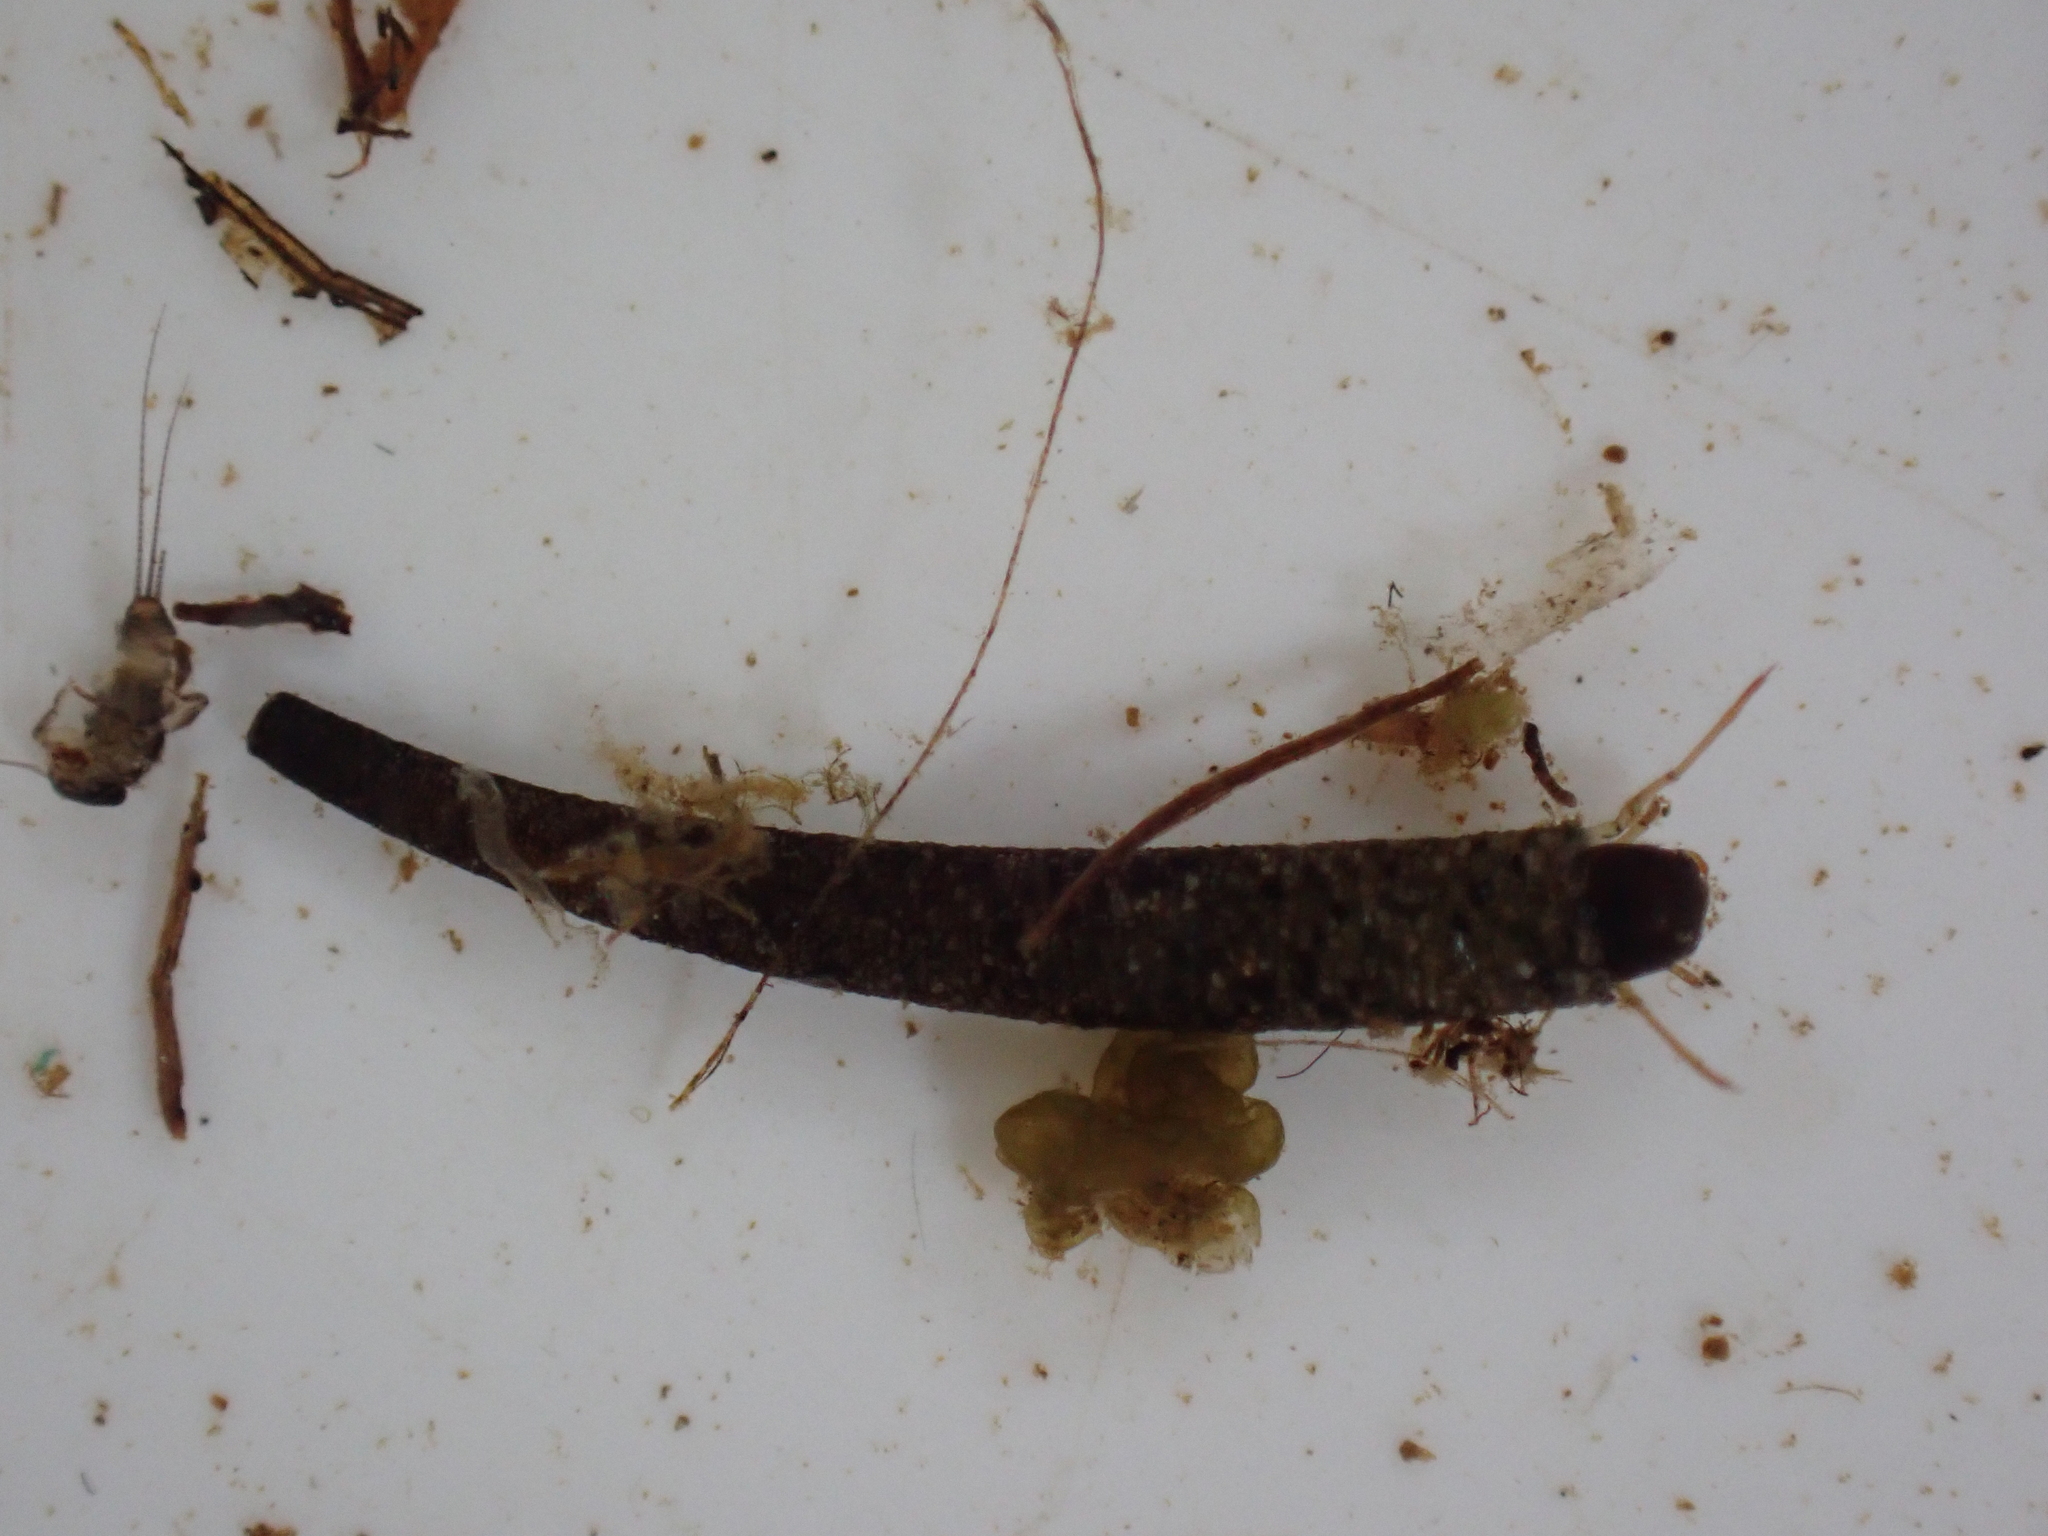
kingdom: Animalia
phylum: Arthropoda
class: Insecta
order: Trichoptera
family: Conoesucidae
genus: Pycnocentria
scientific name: Pycnocentria evecta
